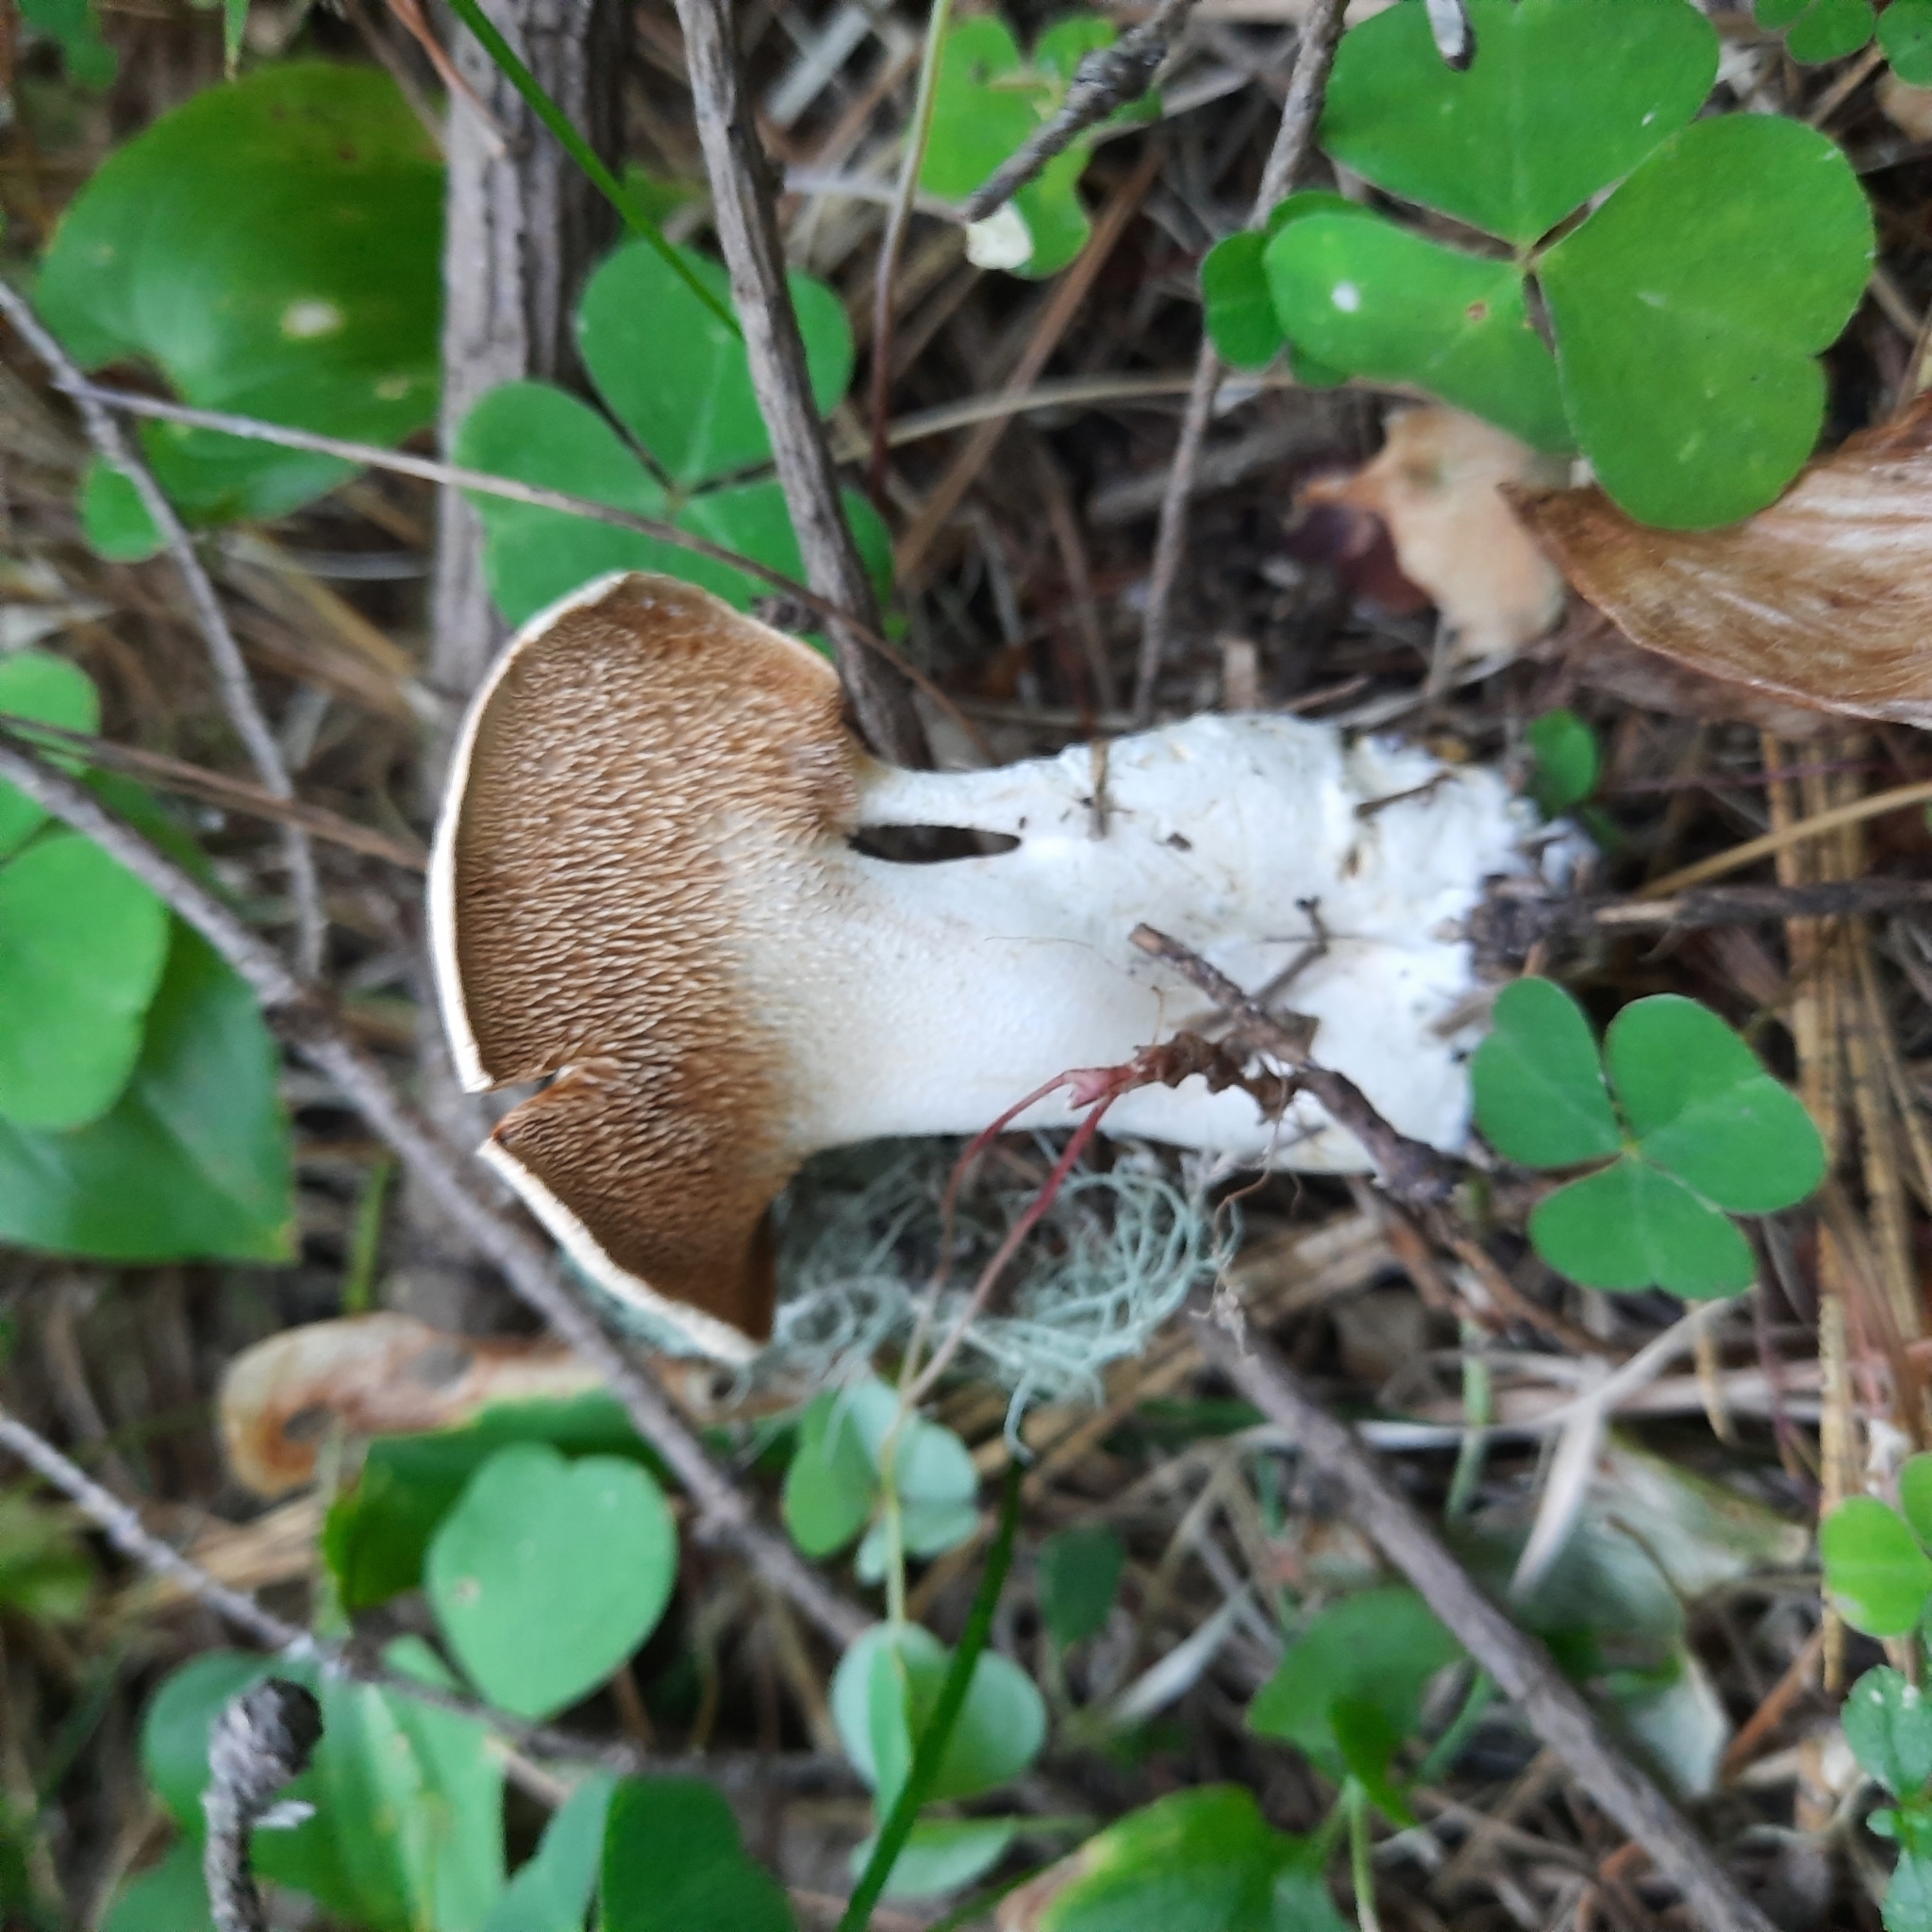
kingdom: Fungi
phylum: Basidiomycota
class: Agaricomycetes
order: Cantharellales
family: Hydnaceae
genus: Hydnum
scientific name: Hydnum repandum
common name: Wood hedgehog
